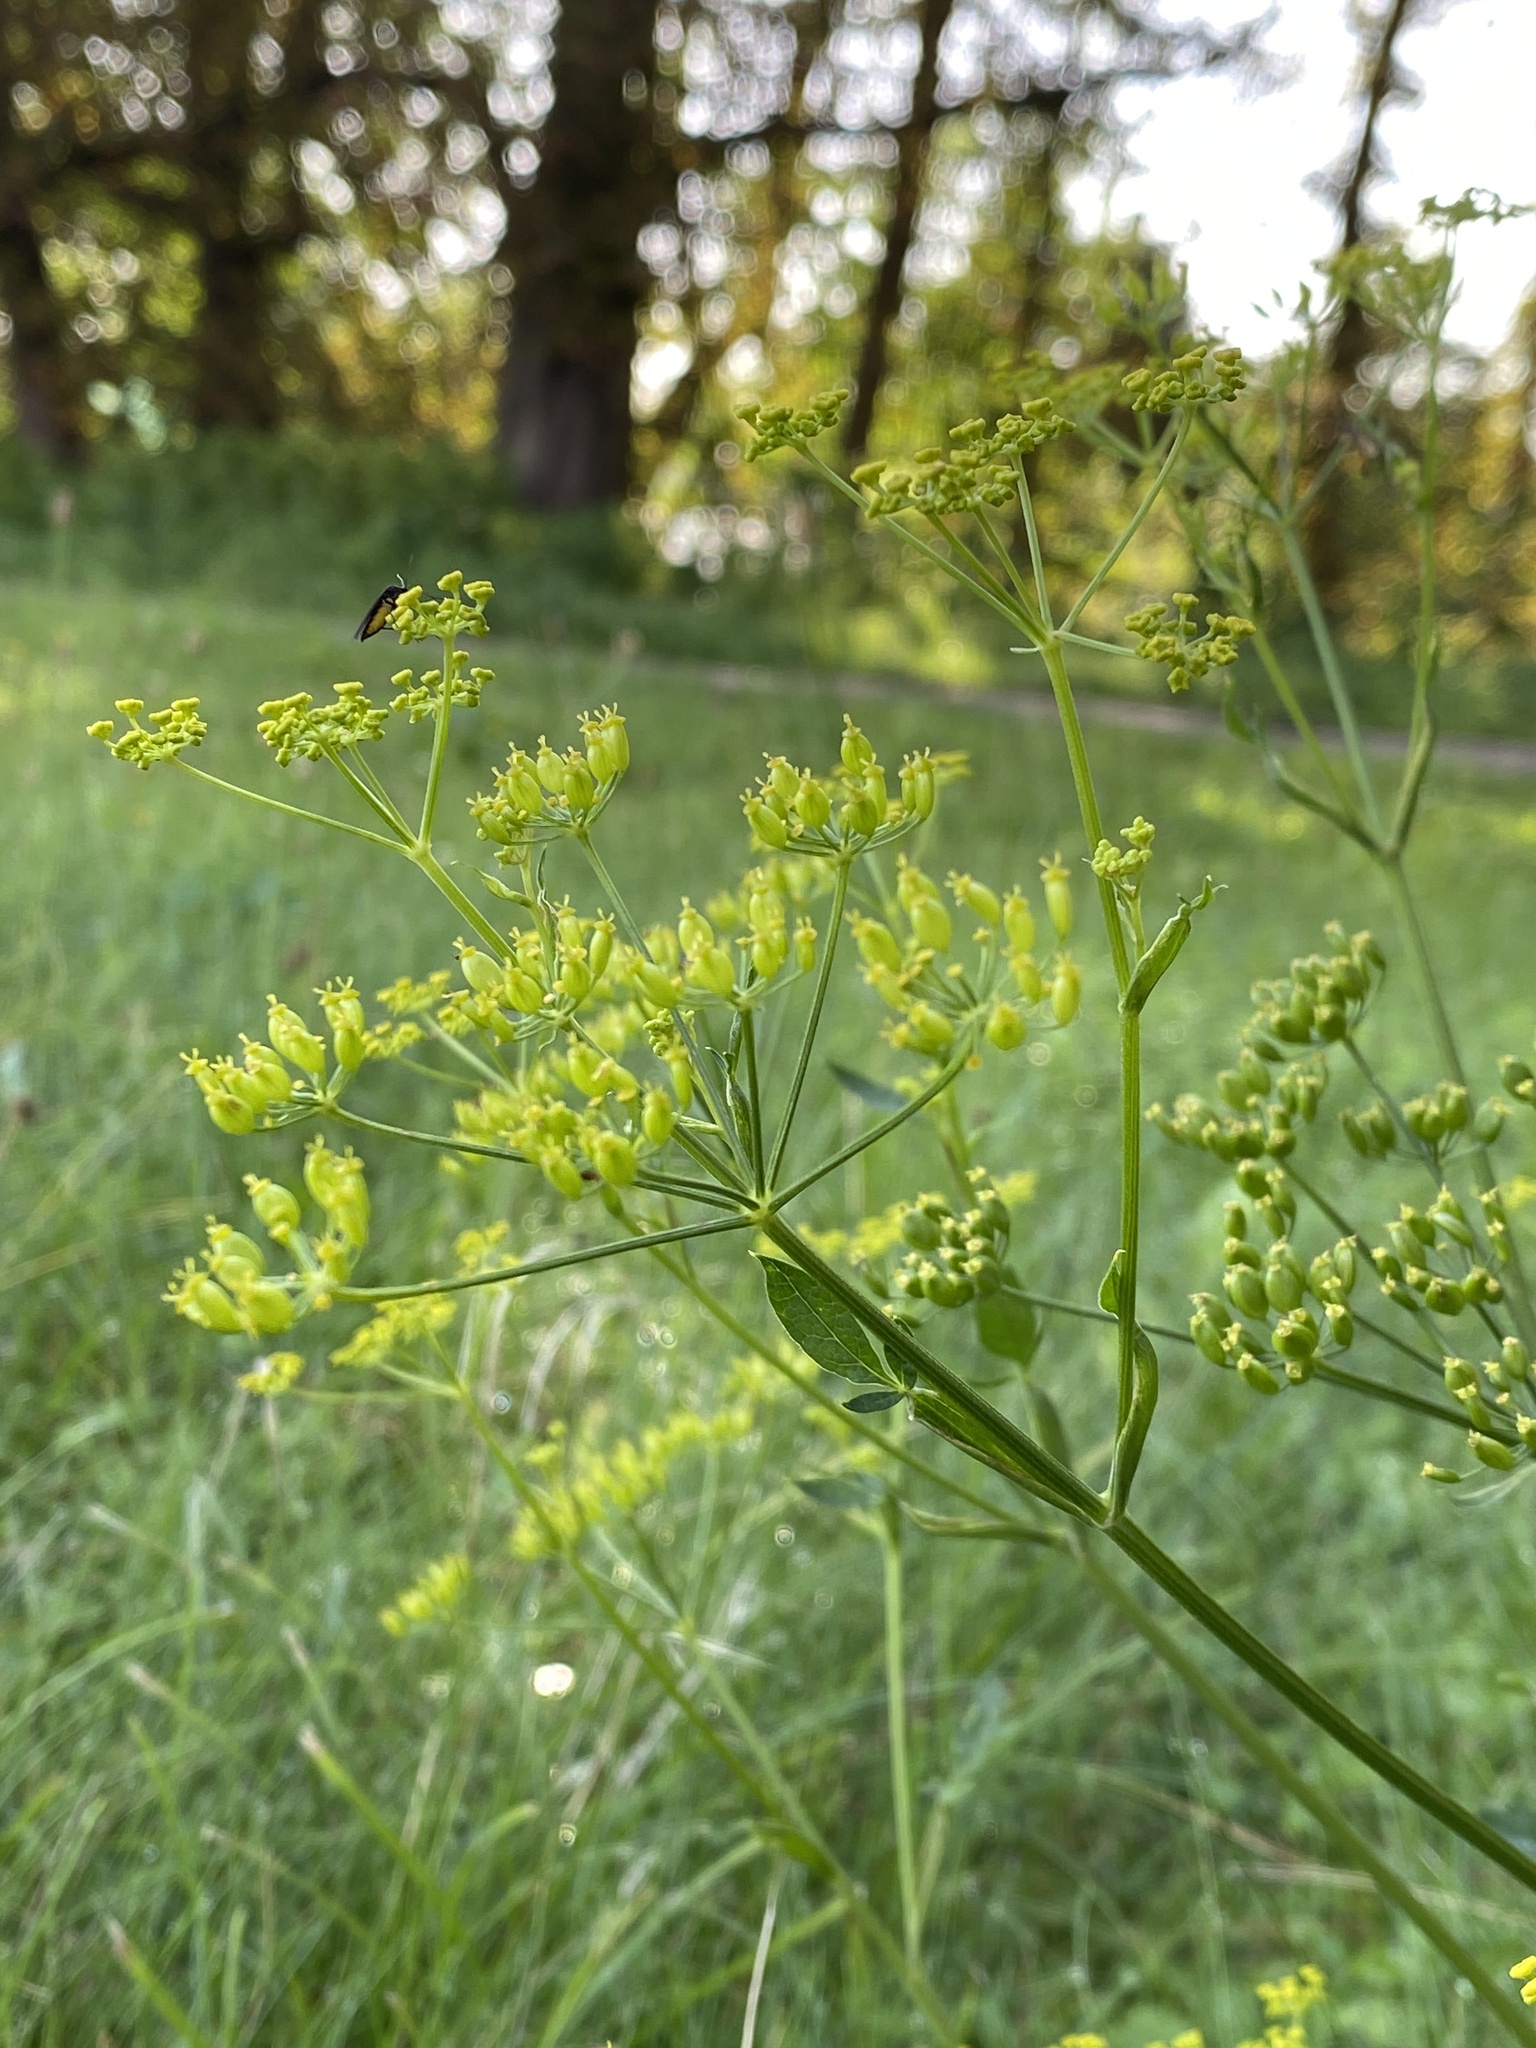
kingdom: Plantae
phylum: Tracheophyta
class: Magnoliopsida
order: Apiales
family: Apiaceae
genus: Pastinaca
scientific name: Pastinaca sativa
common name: Wild parsnip
